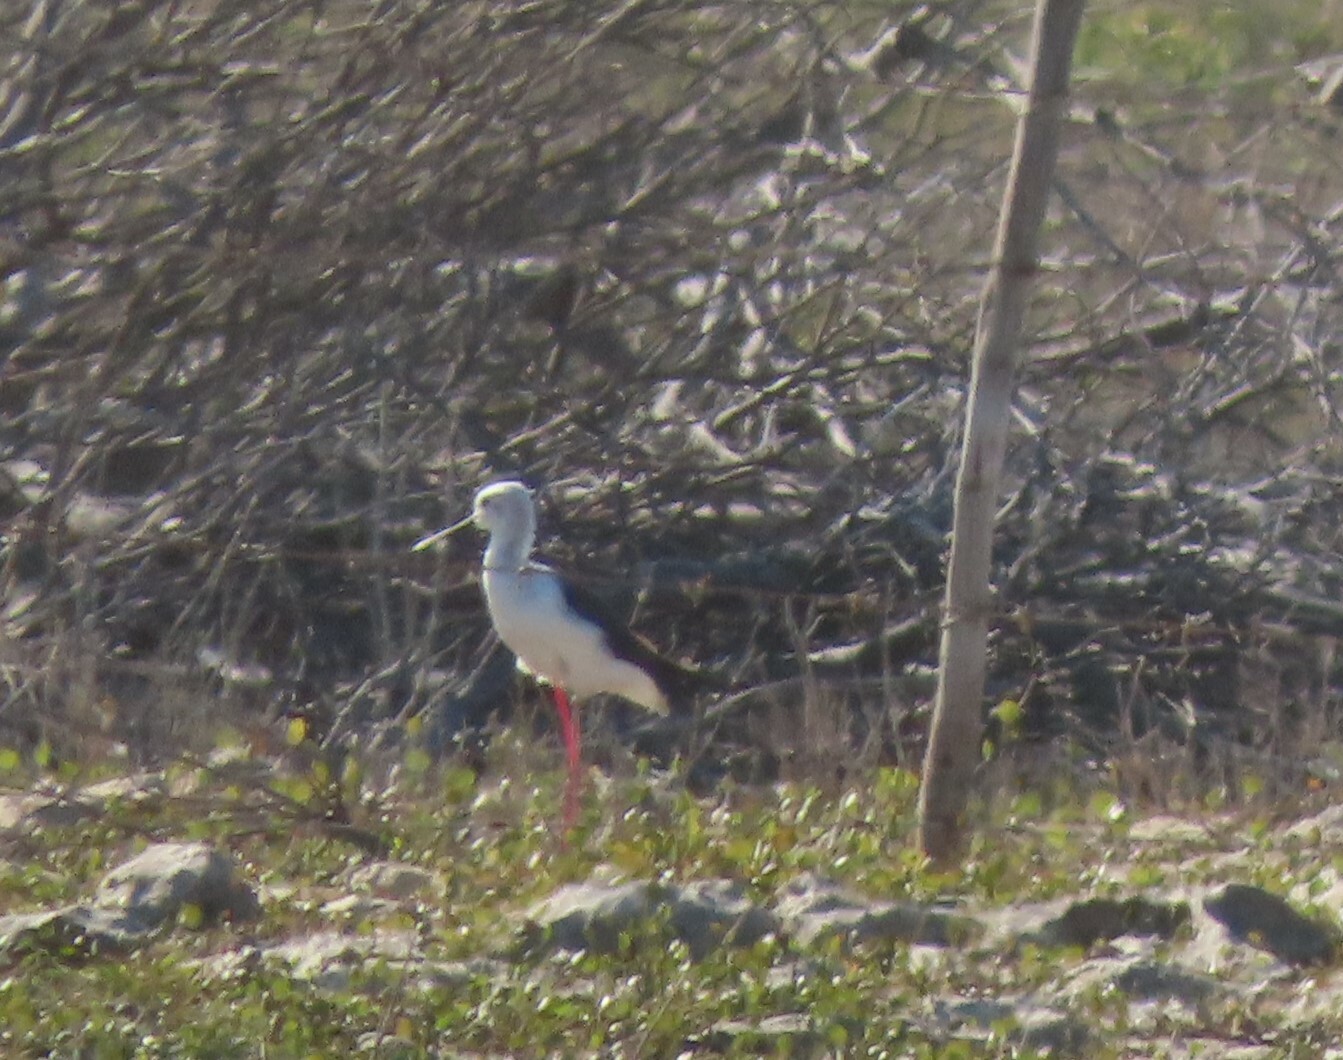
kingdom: Animalia
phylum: Chordata
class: Aves
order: Charadriiformes
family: Recurvirostridae
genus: Himantopus
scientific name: Himantopus himantopus
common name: Black-winged stilt
